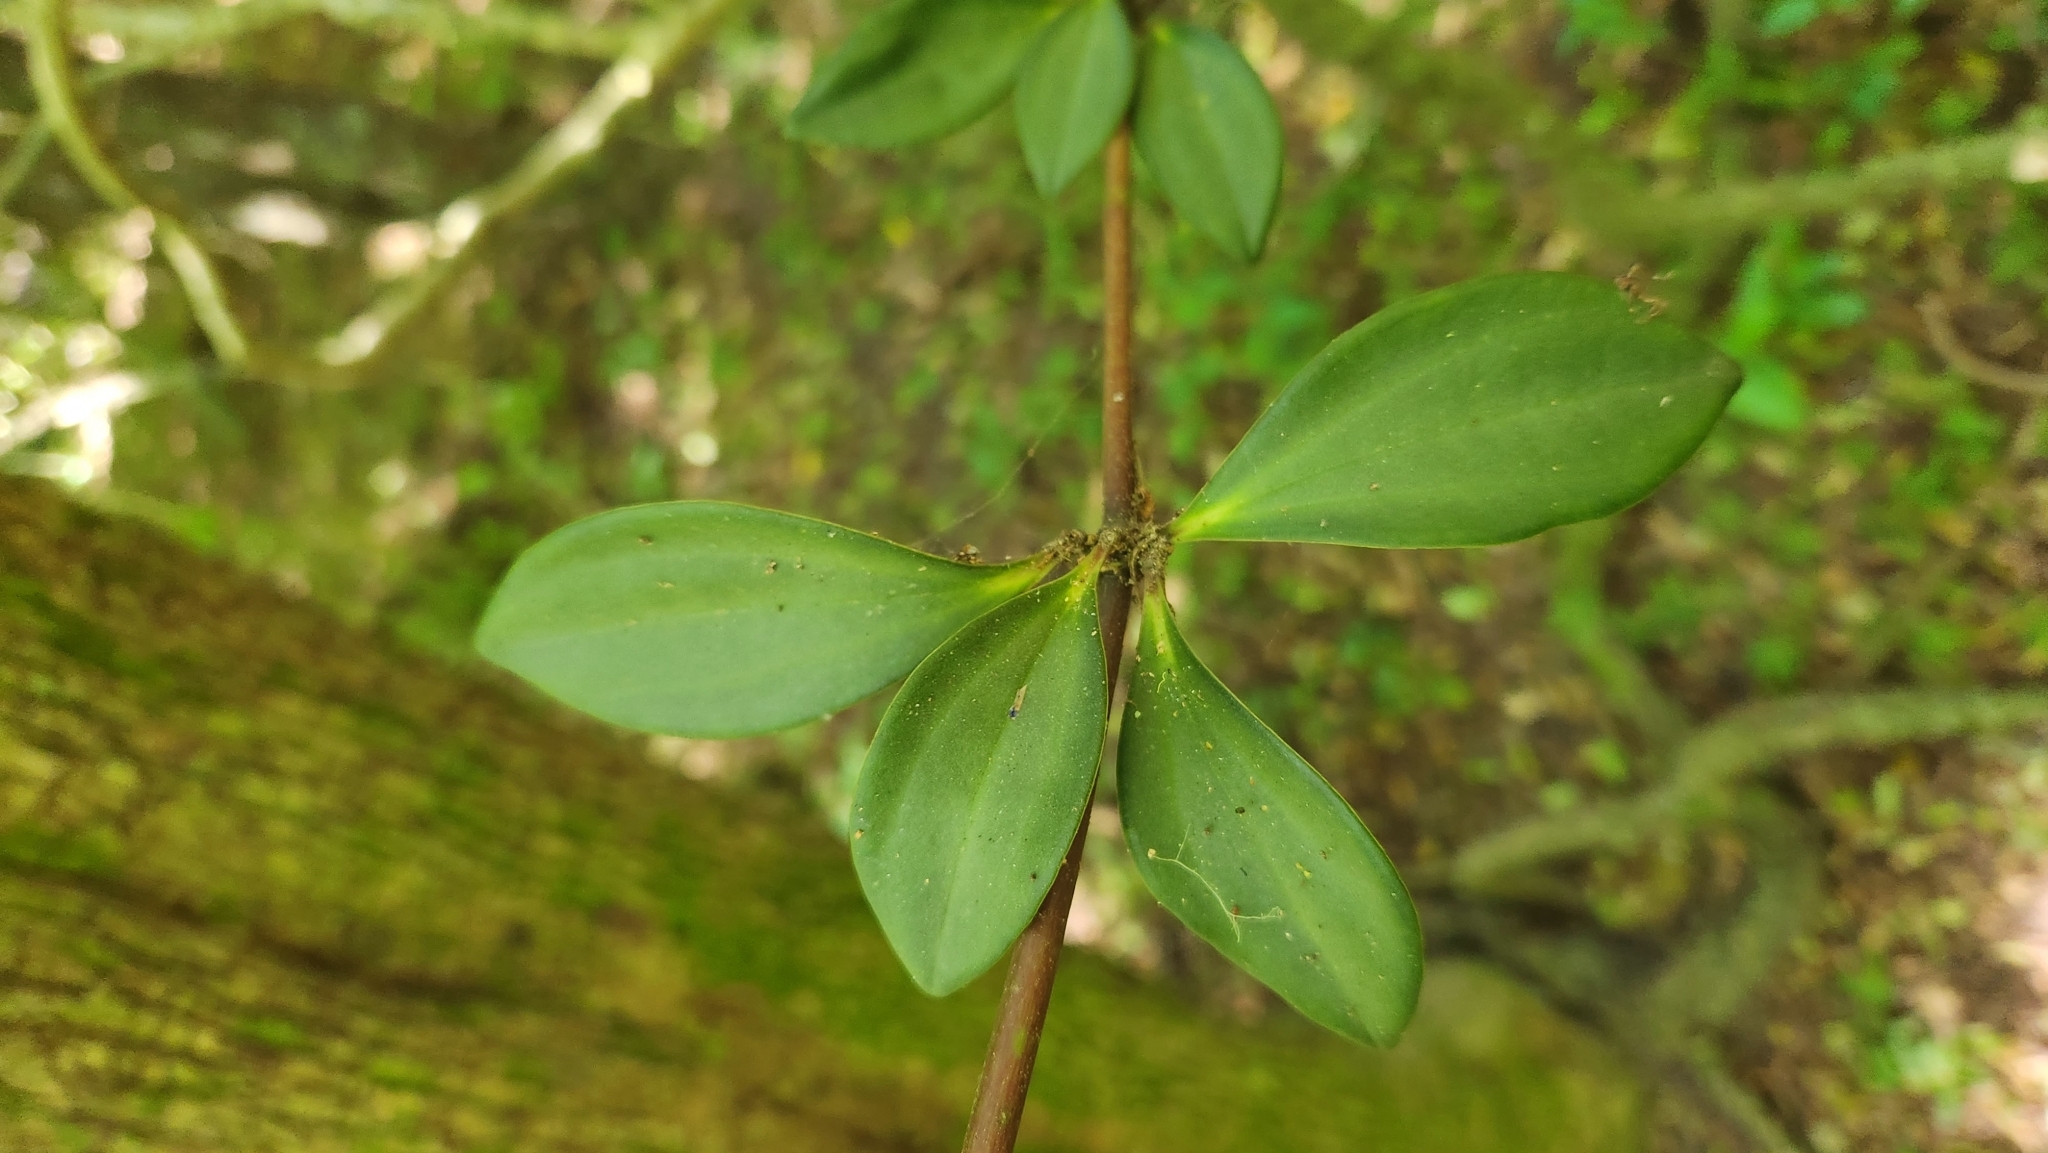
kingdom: Plantae
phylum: Tracheophyta
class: Magnoliopsida
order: Piperales
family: Piperaceae
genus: Peperomia
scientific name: Peperomia pereskiifolia
